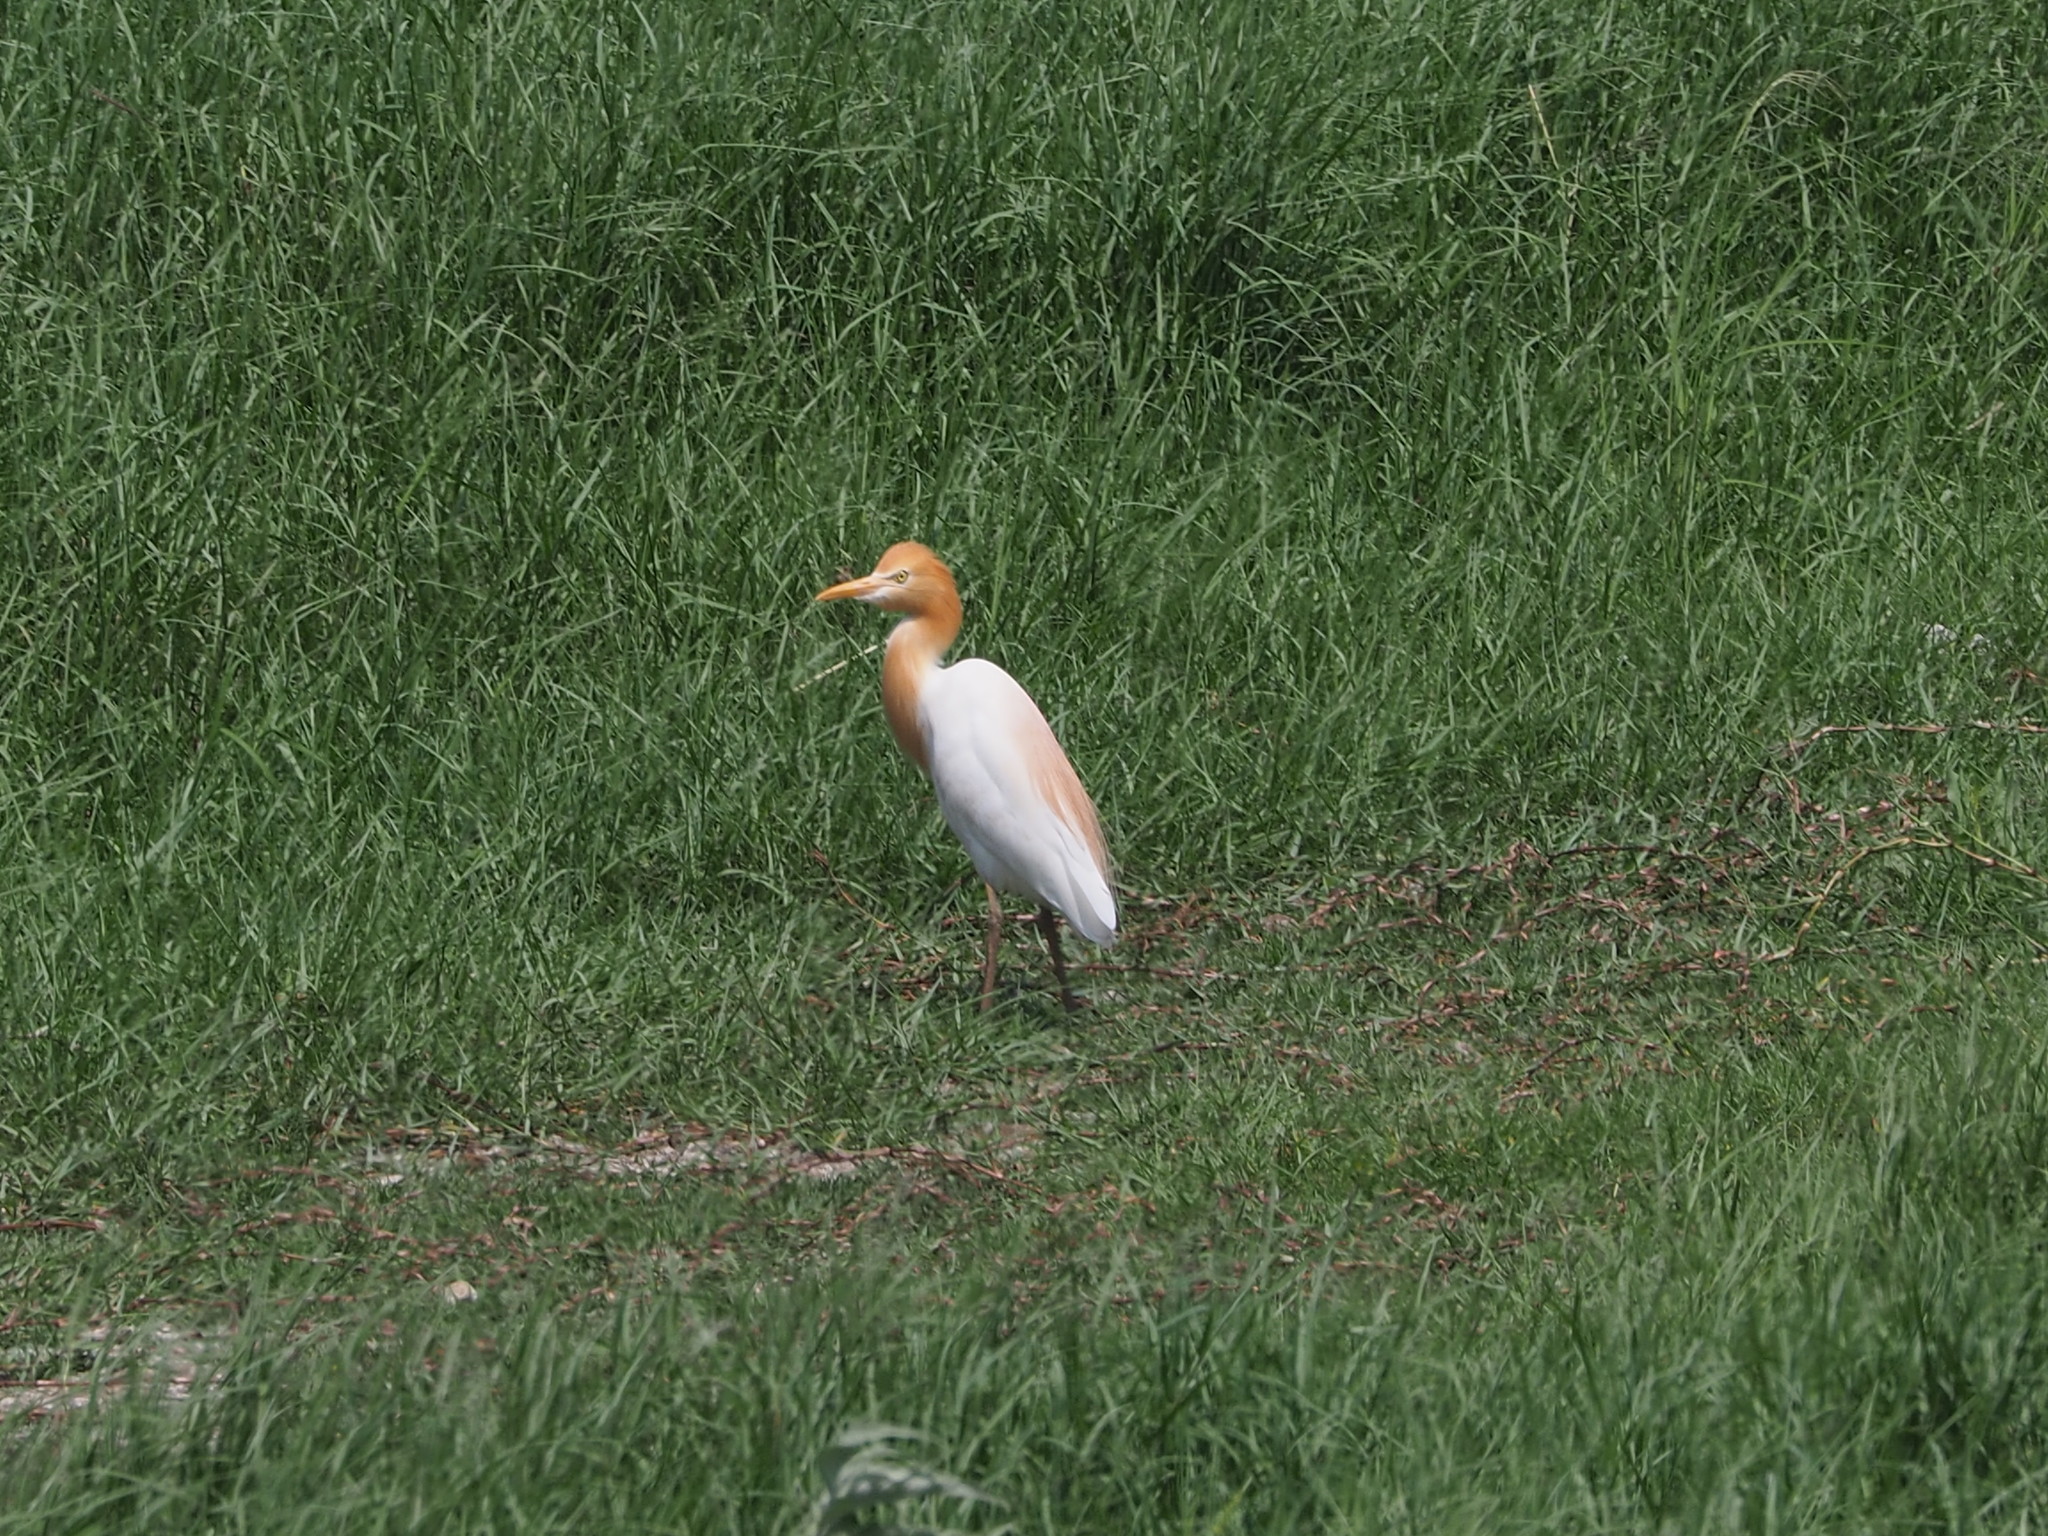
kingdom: Animalia
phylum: Chordata
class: Aves
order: Pelecaniformes
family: Ardeidae
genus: Bubulcus
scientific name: Bubulcus coromandus
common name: Eastern cattle egret
